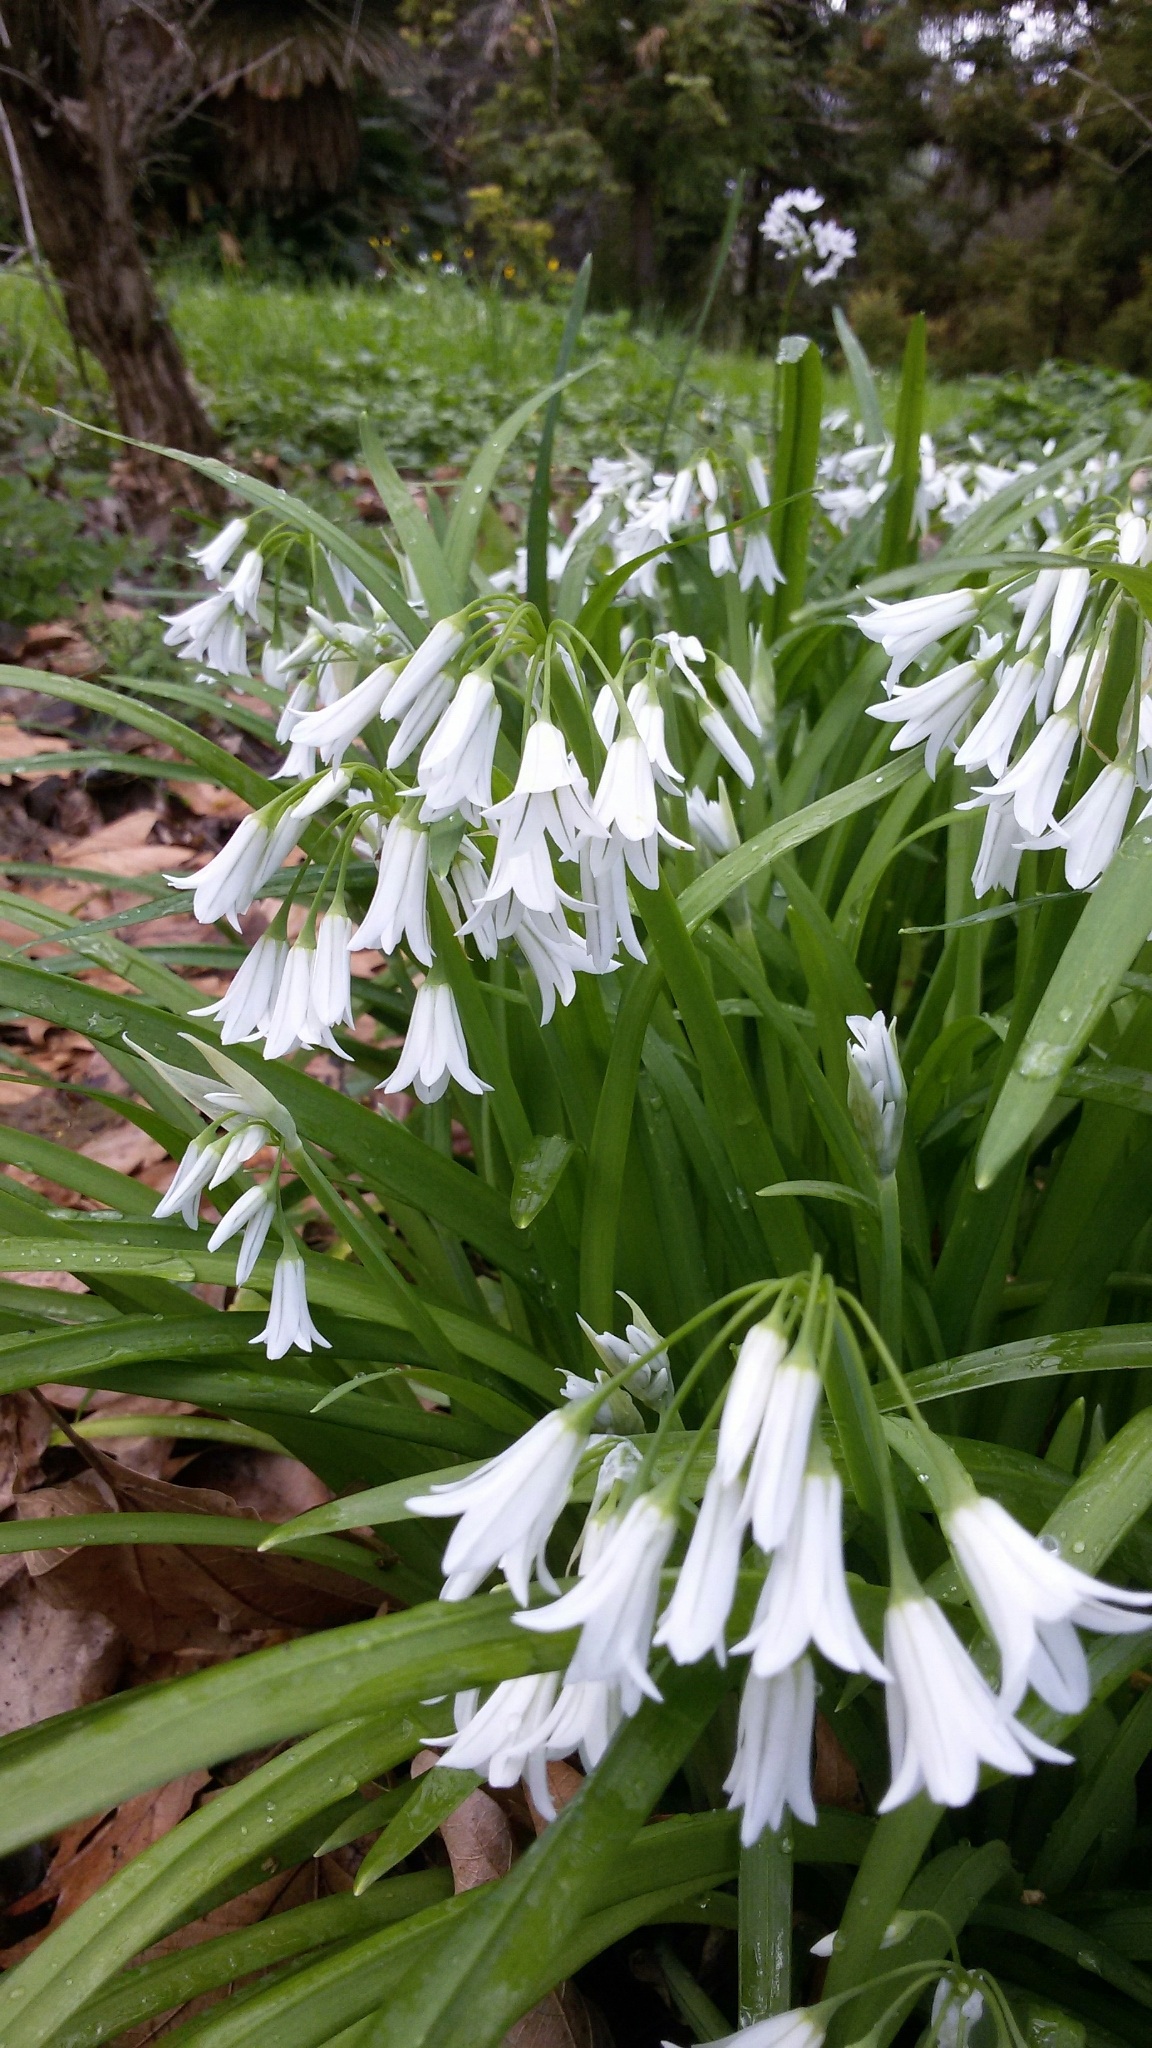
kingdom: Plantae
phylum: Tracheophyta
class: Liliopsida
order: Asparagales
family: Amaryllidaceae
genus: Allium
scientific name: Allium triquetrum
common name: Three-cornered garlic
